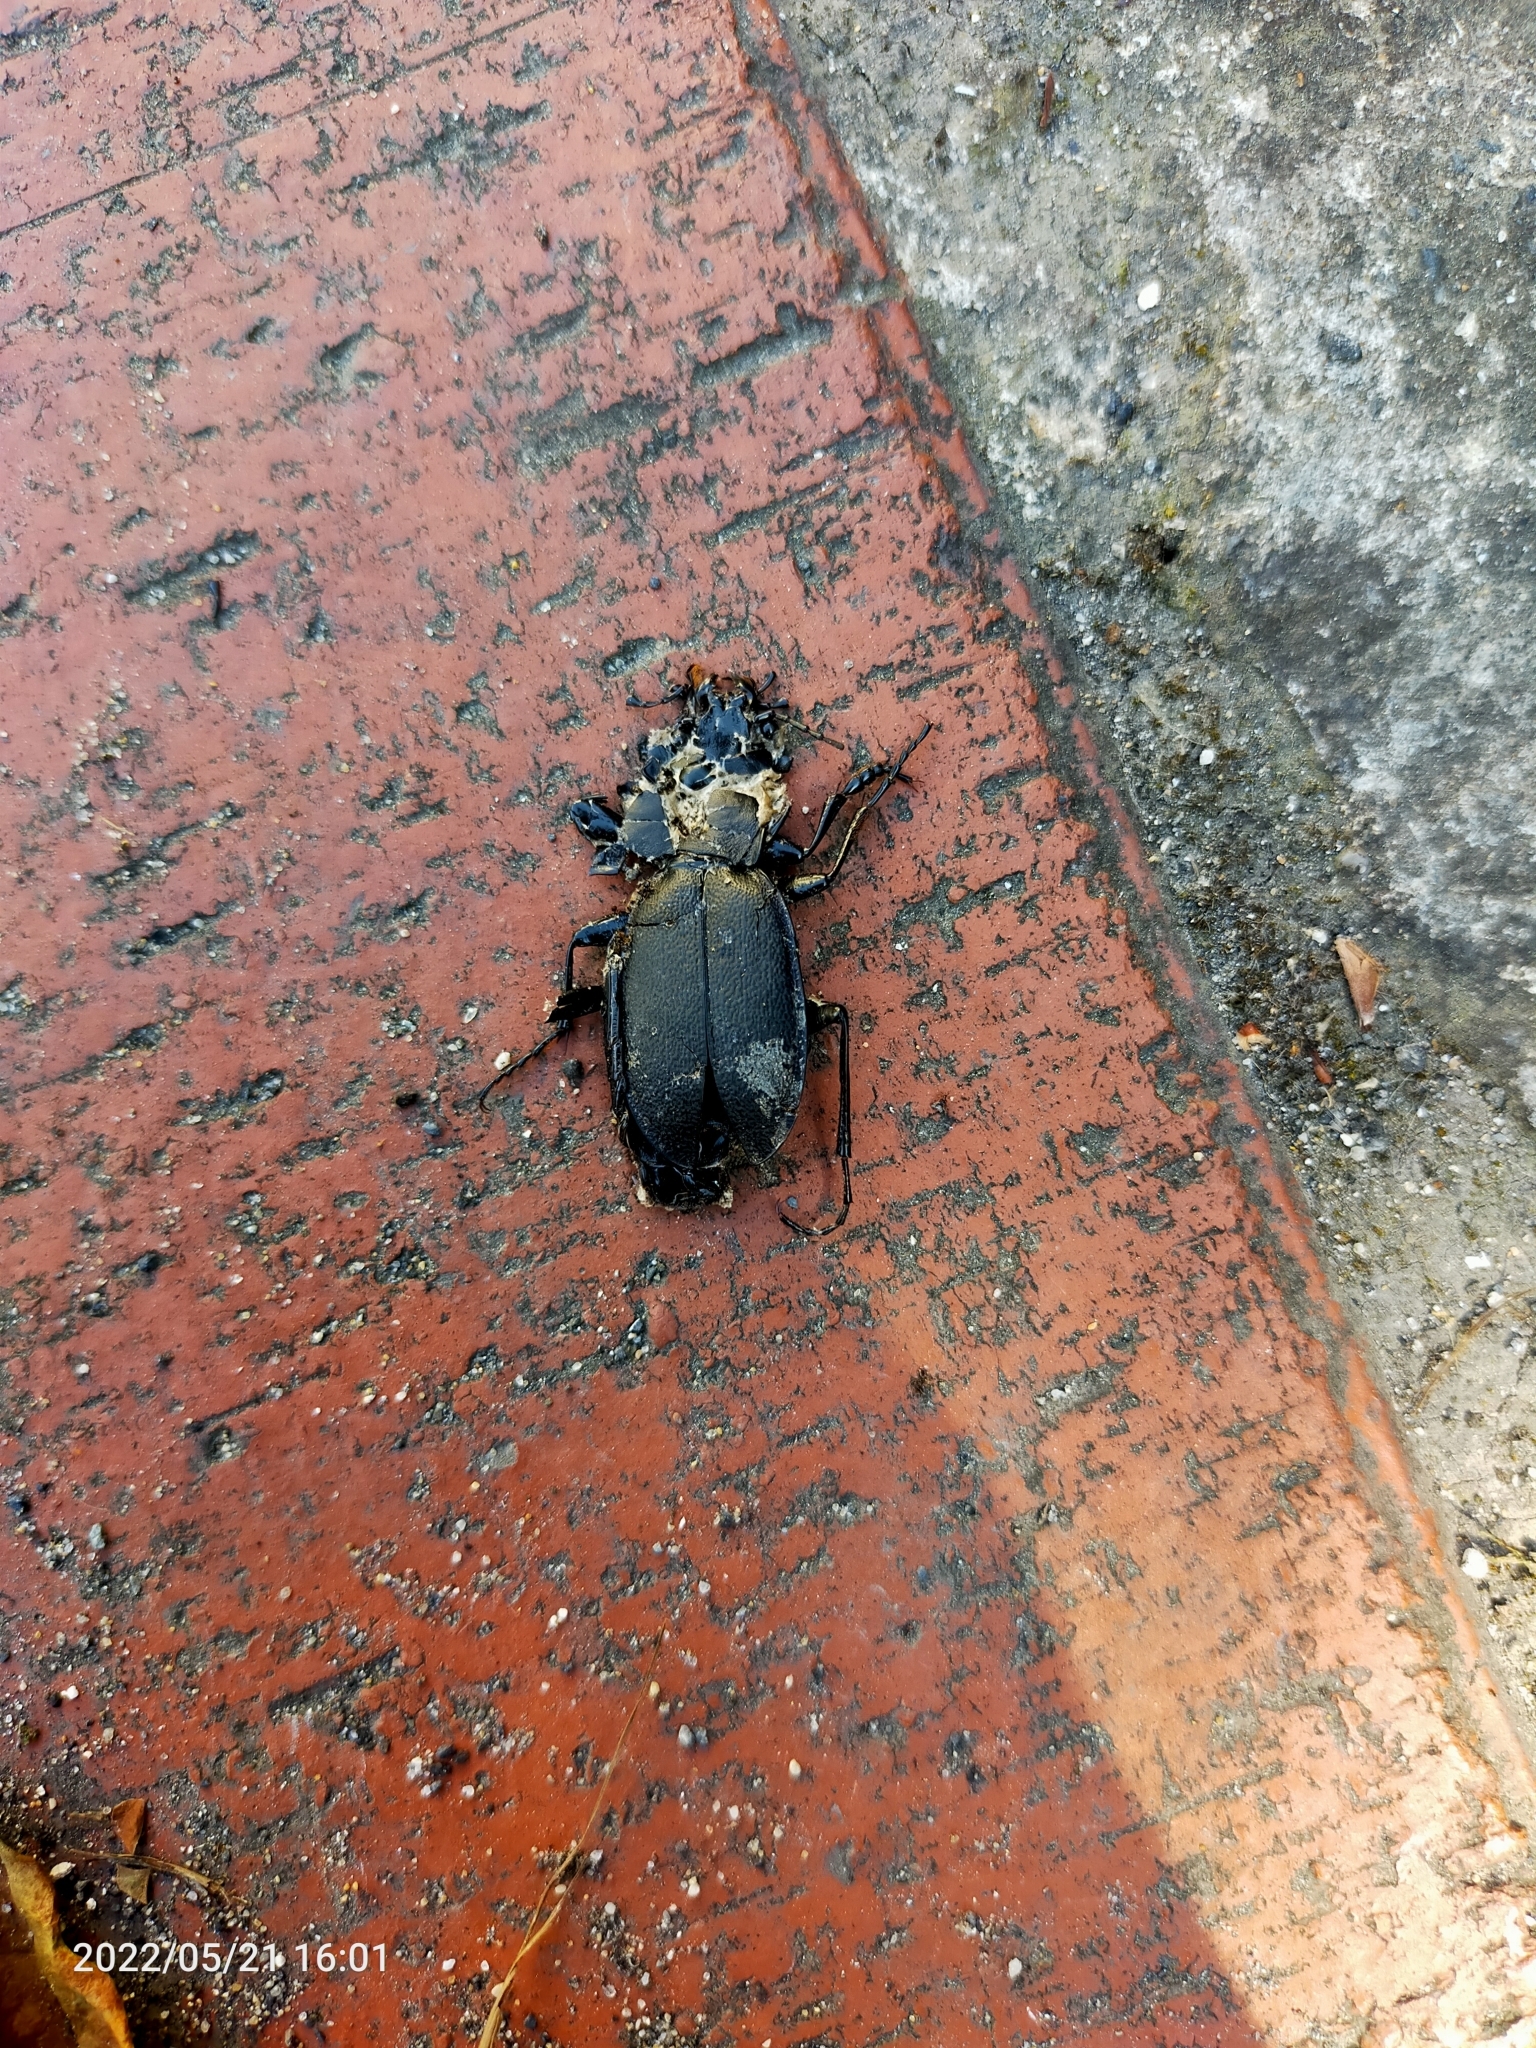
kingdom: Animalia
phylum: Arthropoda
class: Insecta
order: Coleoptera
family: Carabidae
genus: Carabus
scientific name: Carabus coriaceus
